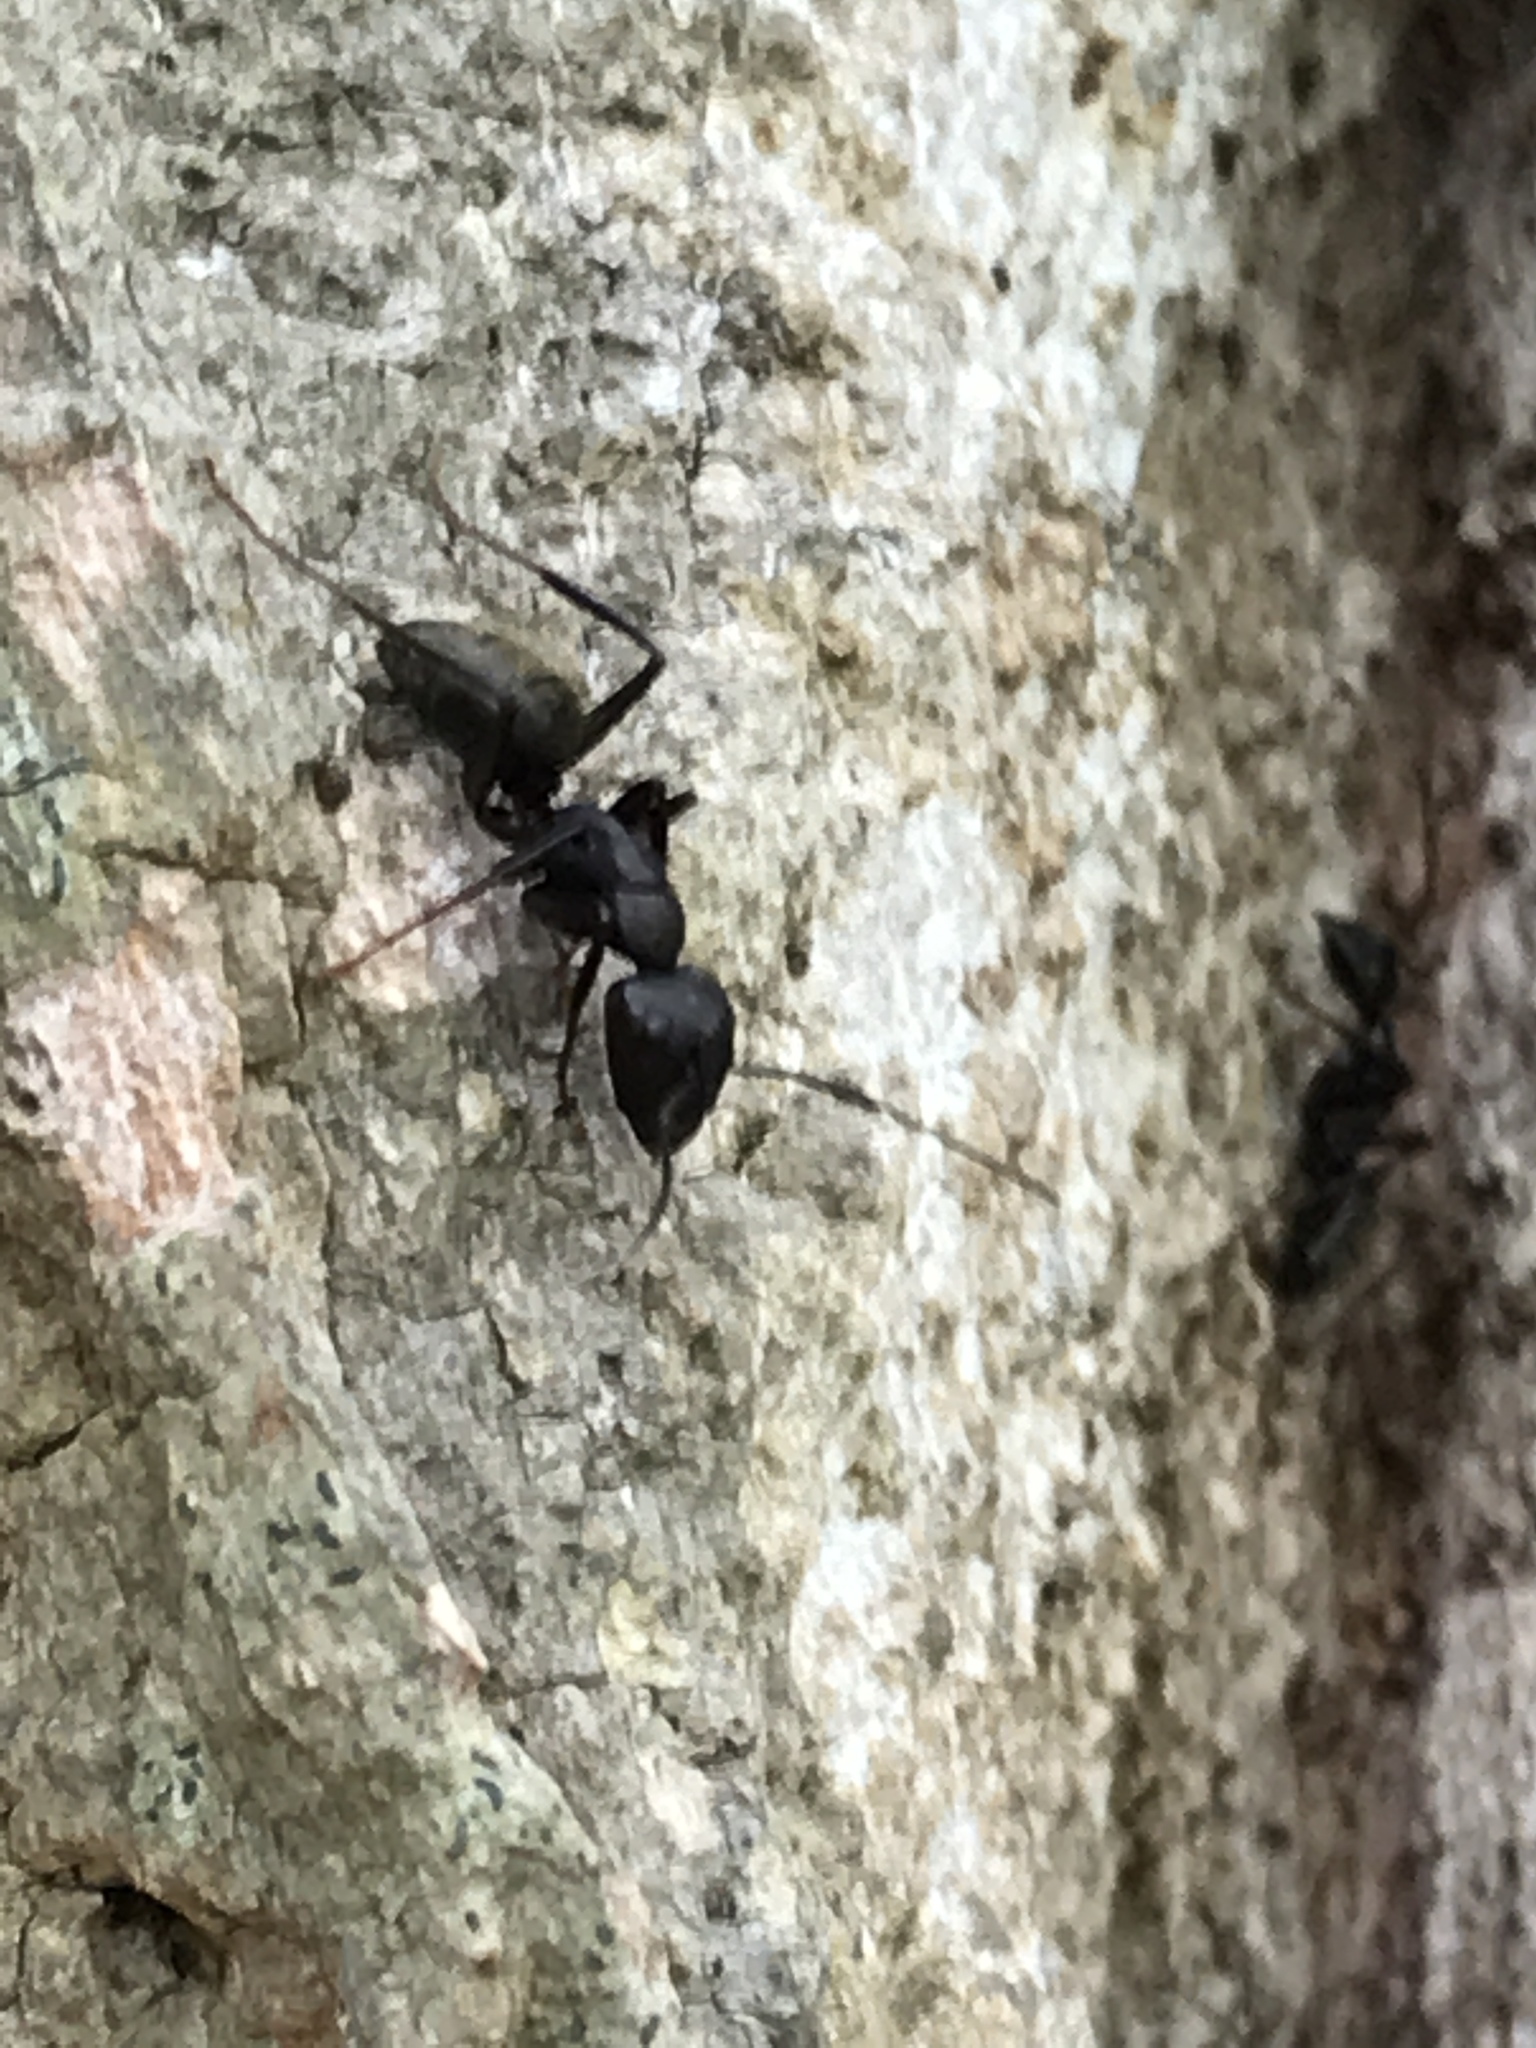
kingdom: Animalia
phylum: Arthropoda
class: Insecta
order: Hymenoptera
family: Formicidae
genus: Camponotus
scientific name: Camponotus pennsylvanicus
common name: Black carpenter ant
